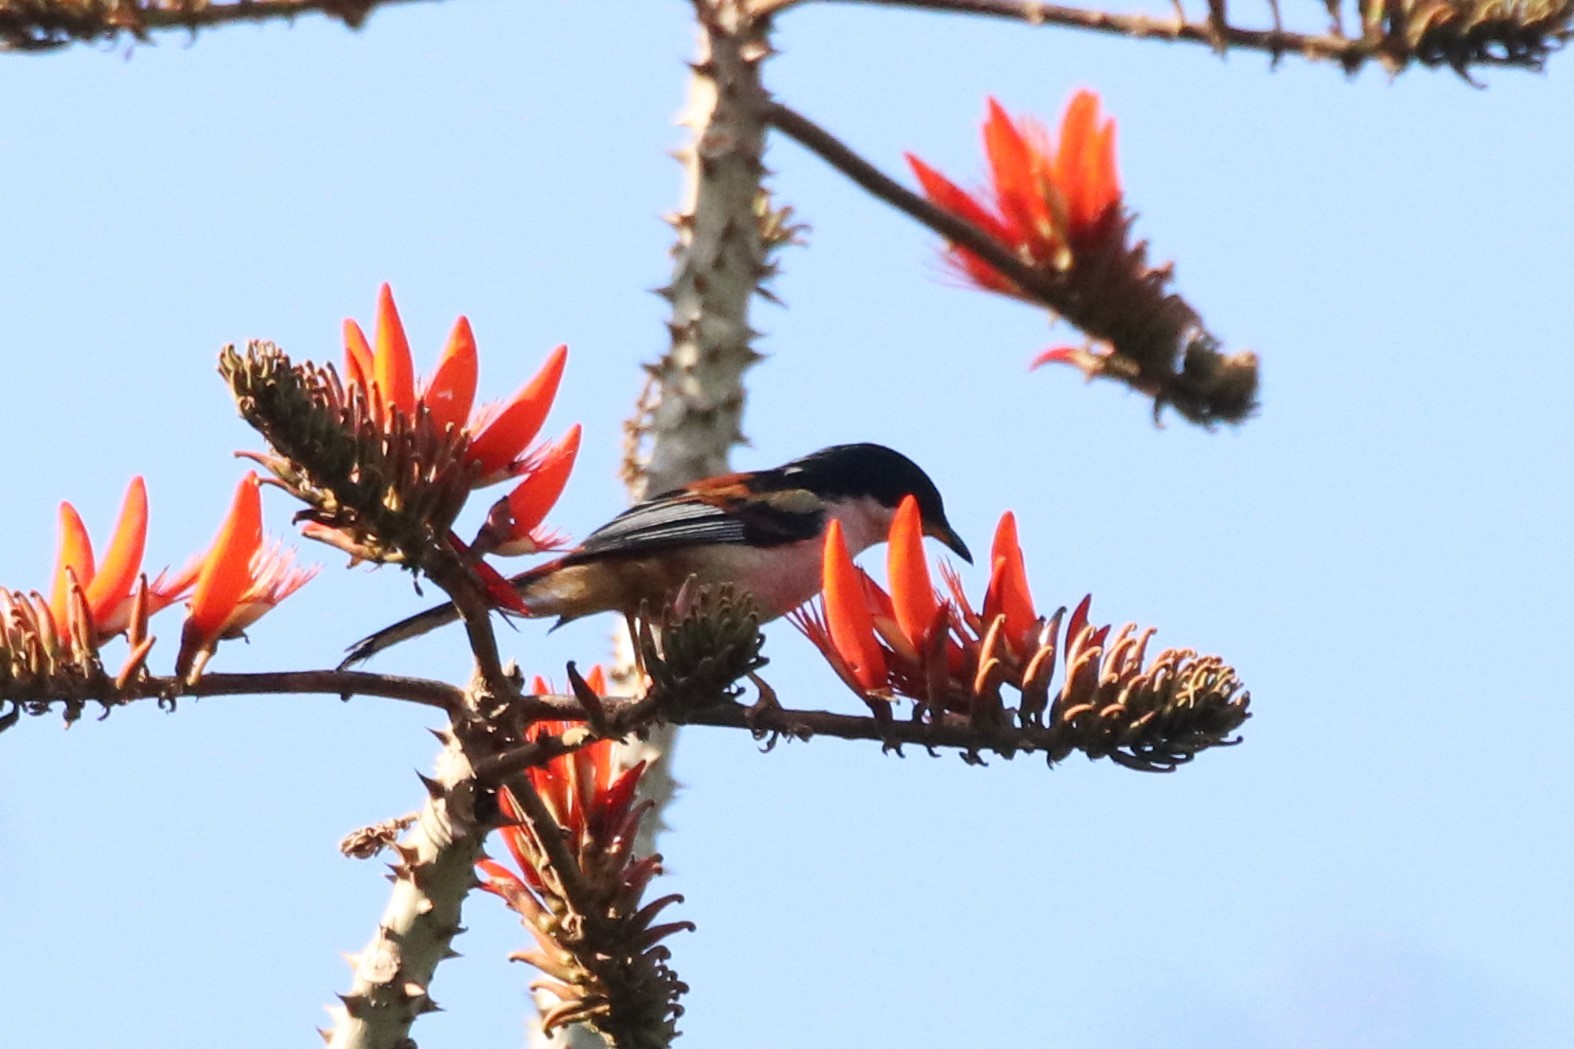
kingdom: Animalia
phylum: Chordata
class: Aves
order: Passeriformes
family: Leiothrichidae
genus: Heterophasia
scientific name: Heterophasia annectans
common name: Rufous-backed sibia
